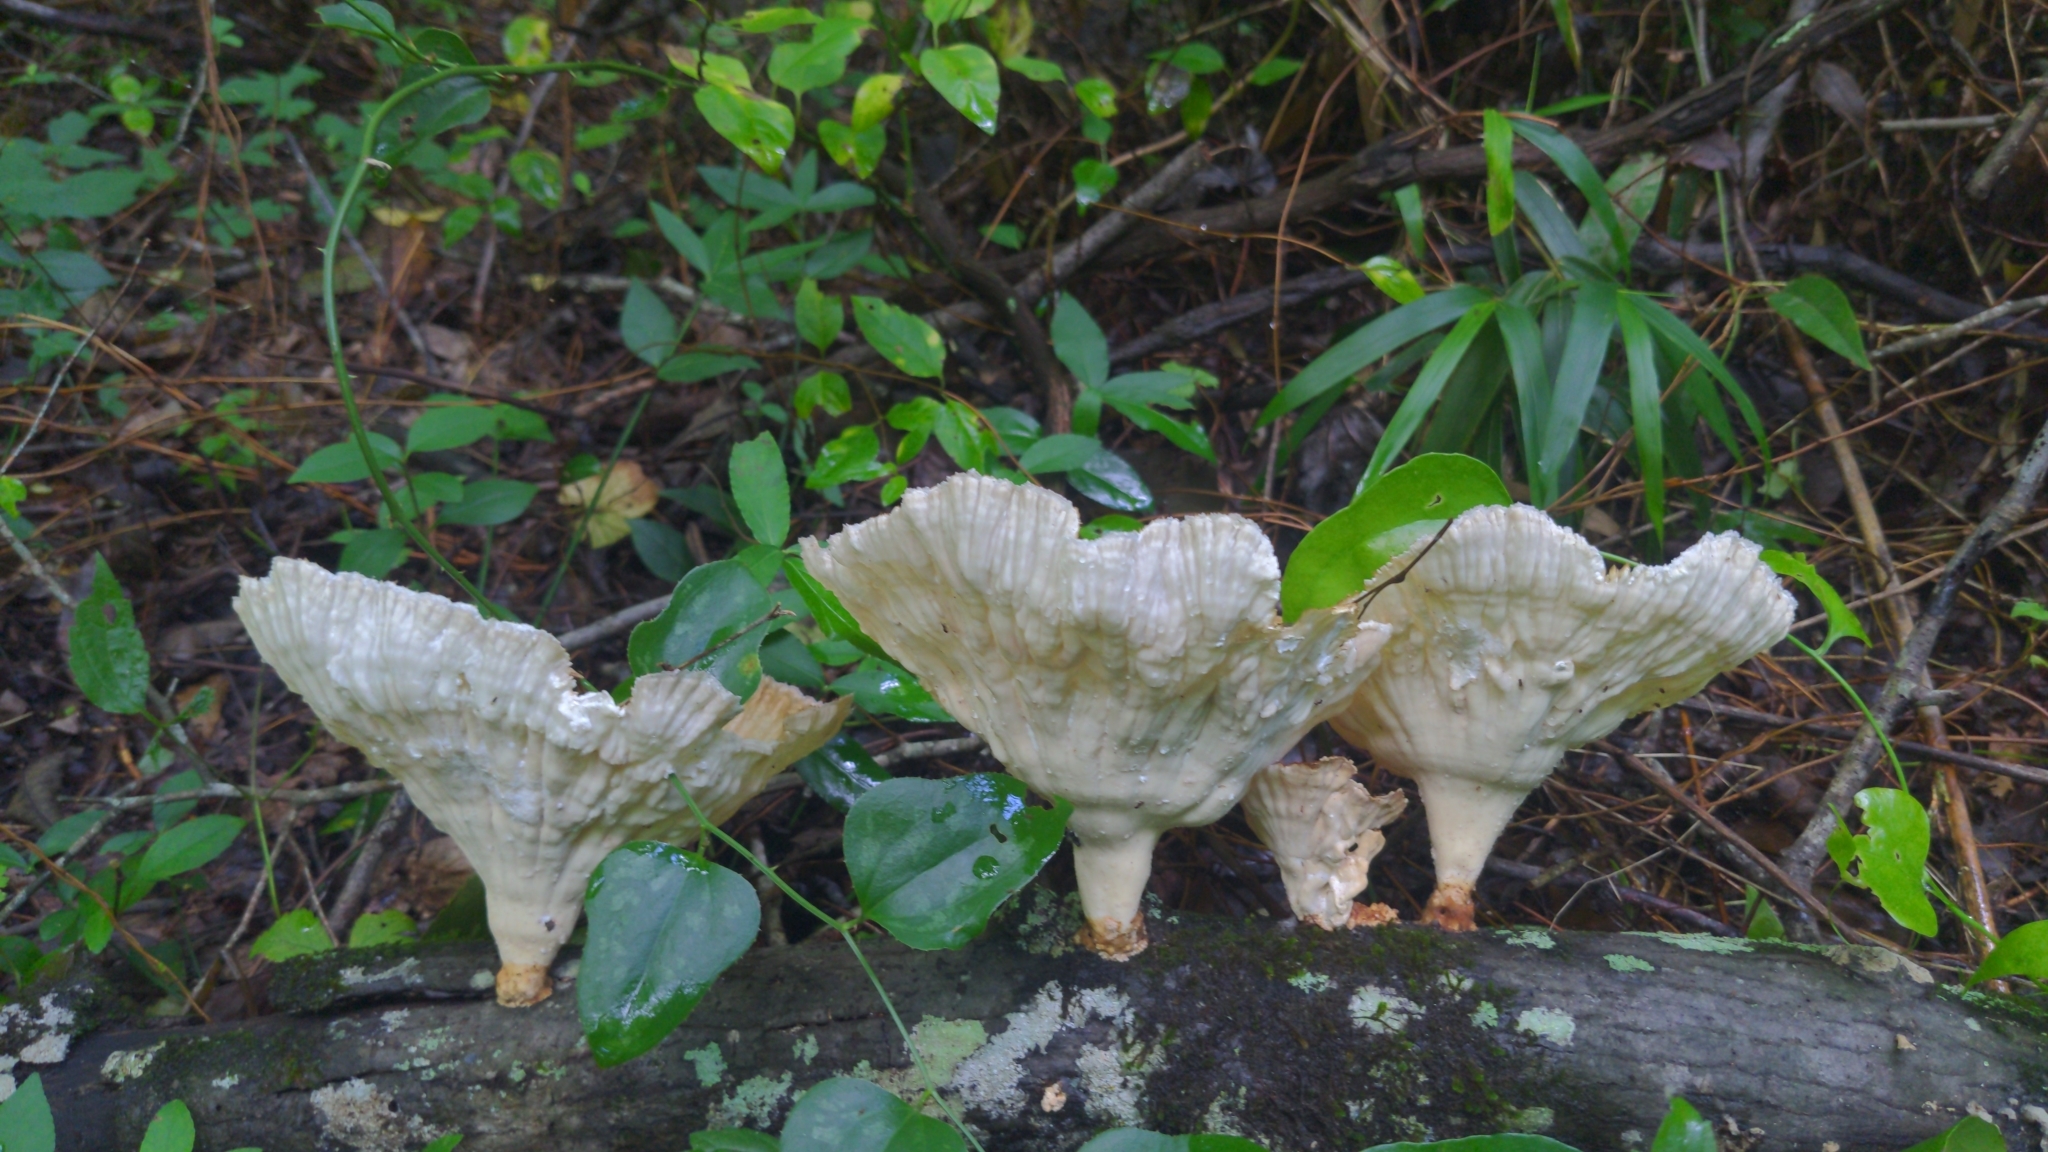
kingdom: Fungi
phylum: Basidiomycota
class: Agaricomycetes
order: Polyporales
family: Panaceae
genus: Cymatoderma
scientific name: Cymatoderma caperatum
